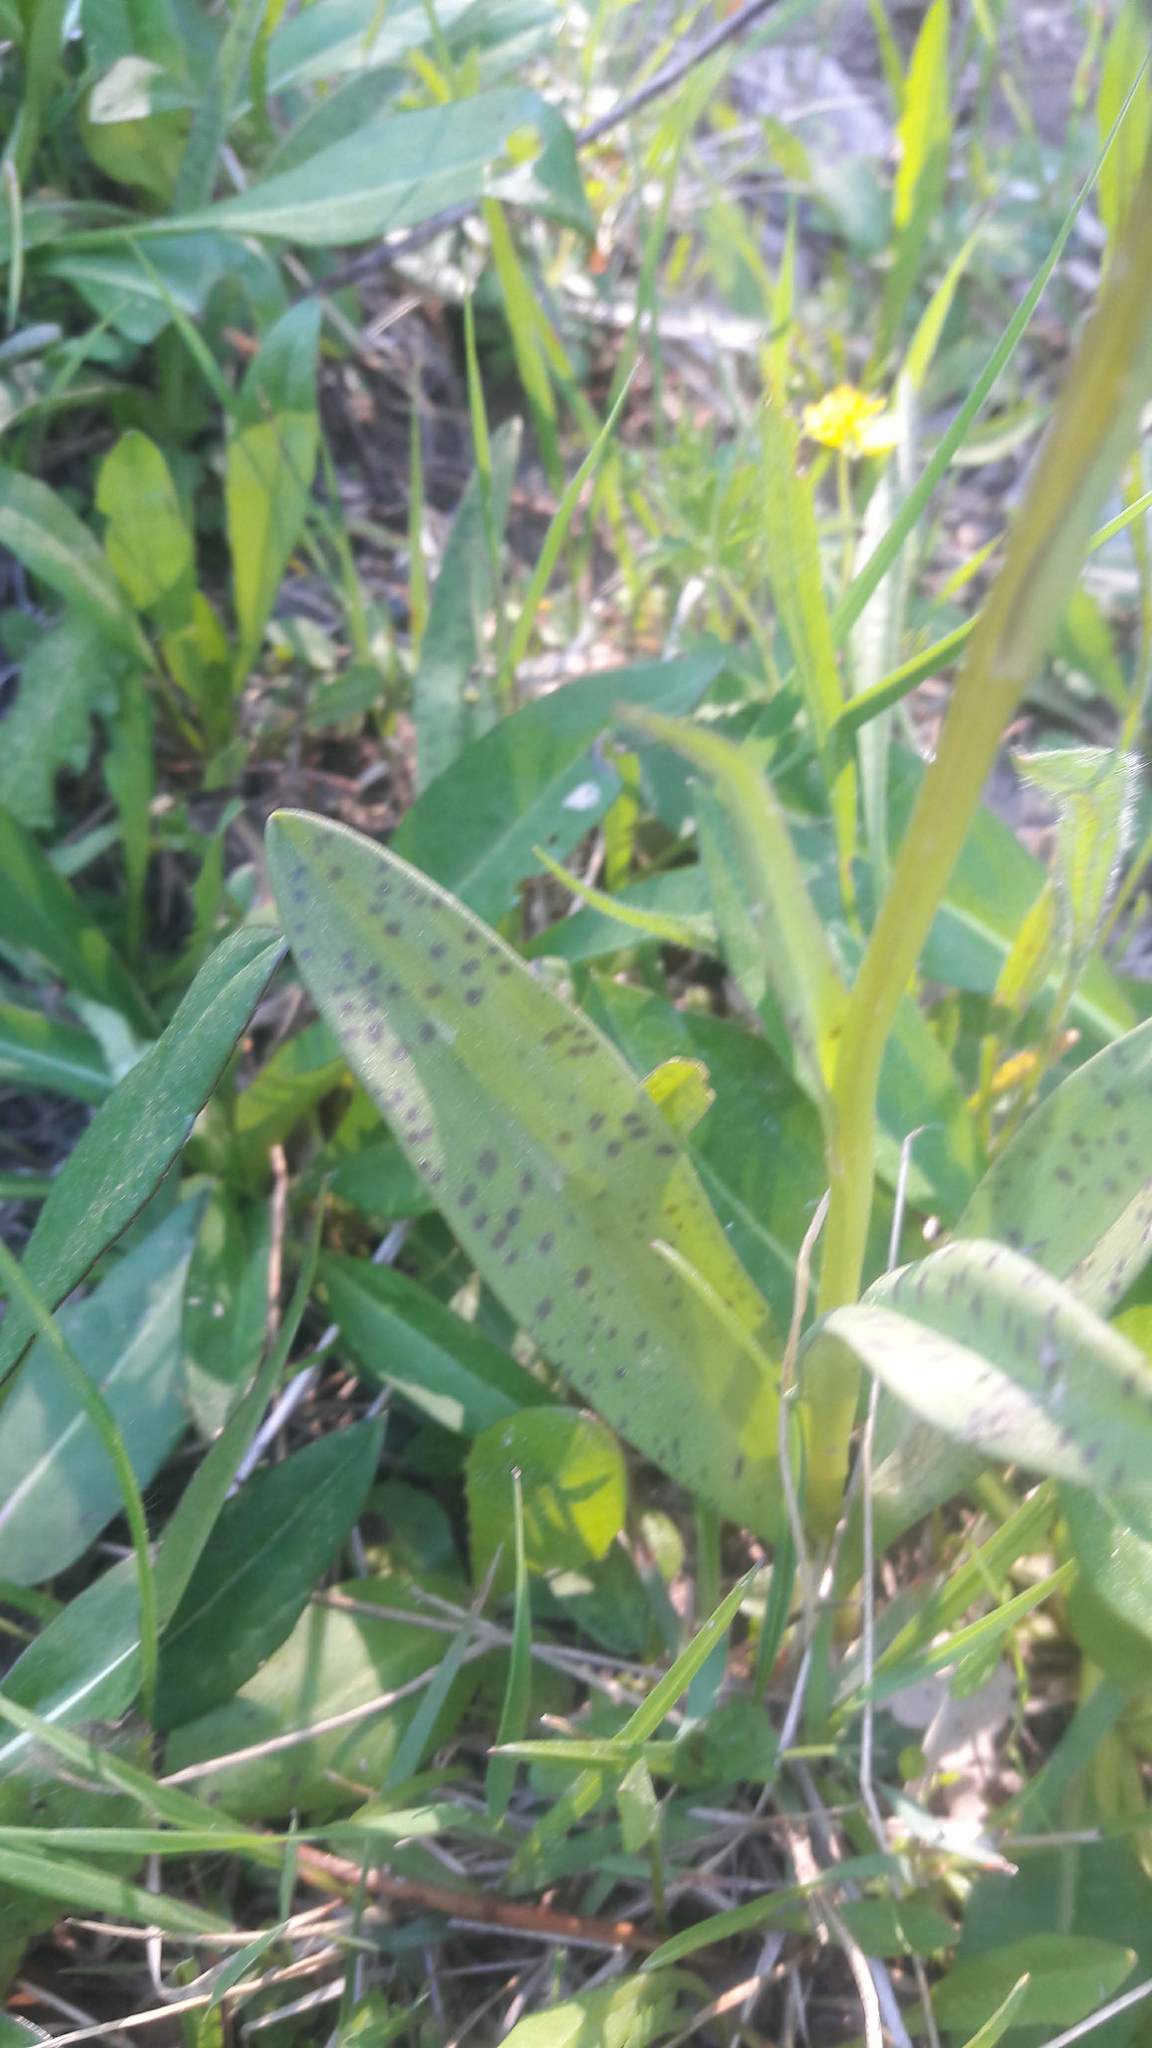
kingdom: Plantae
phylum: Tracheophyta
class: Liliopsida
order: Asparagales
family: Orchidaceae
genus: Dactylorhiza
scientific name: Dactylorhiza maculata
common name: Heath spotted-orchid
